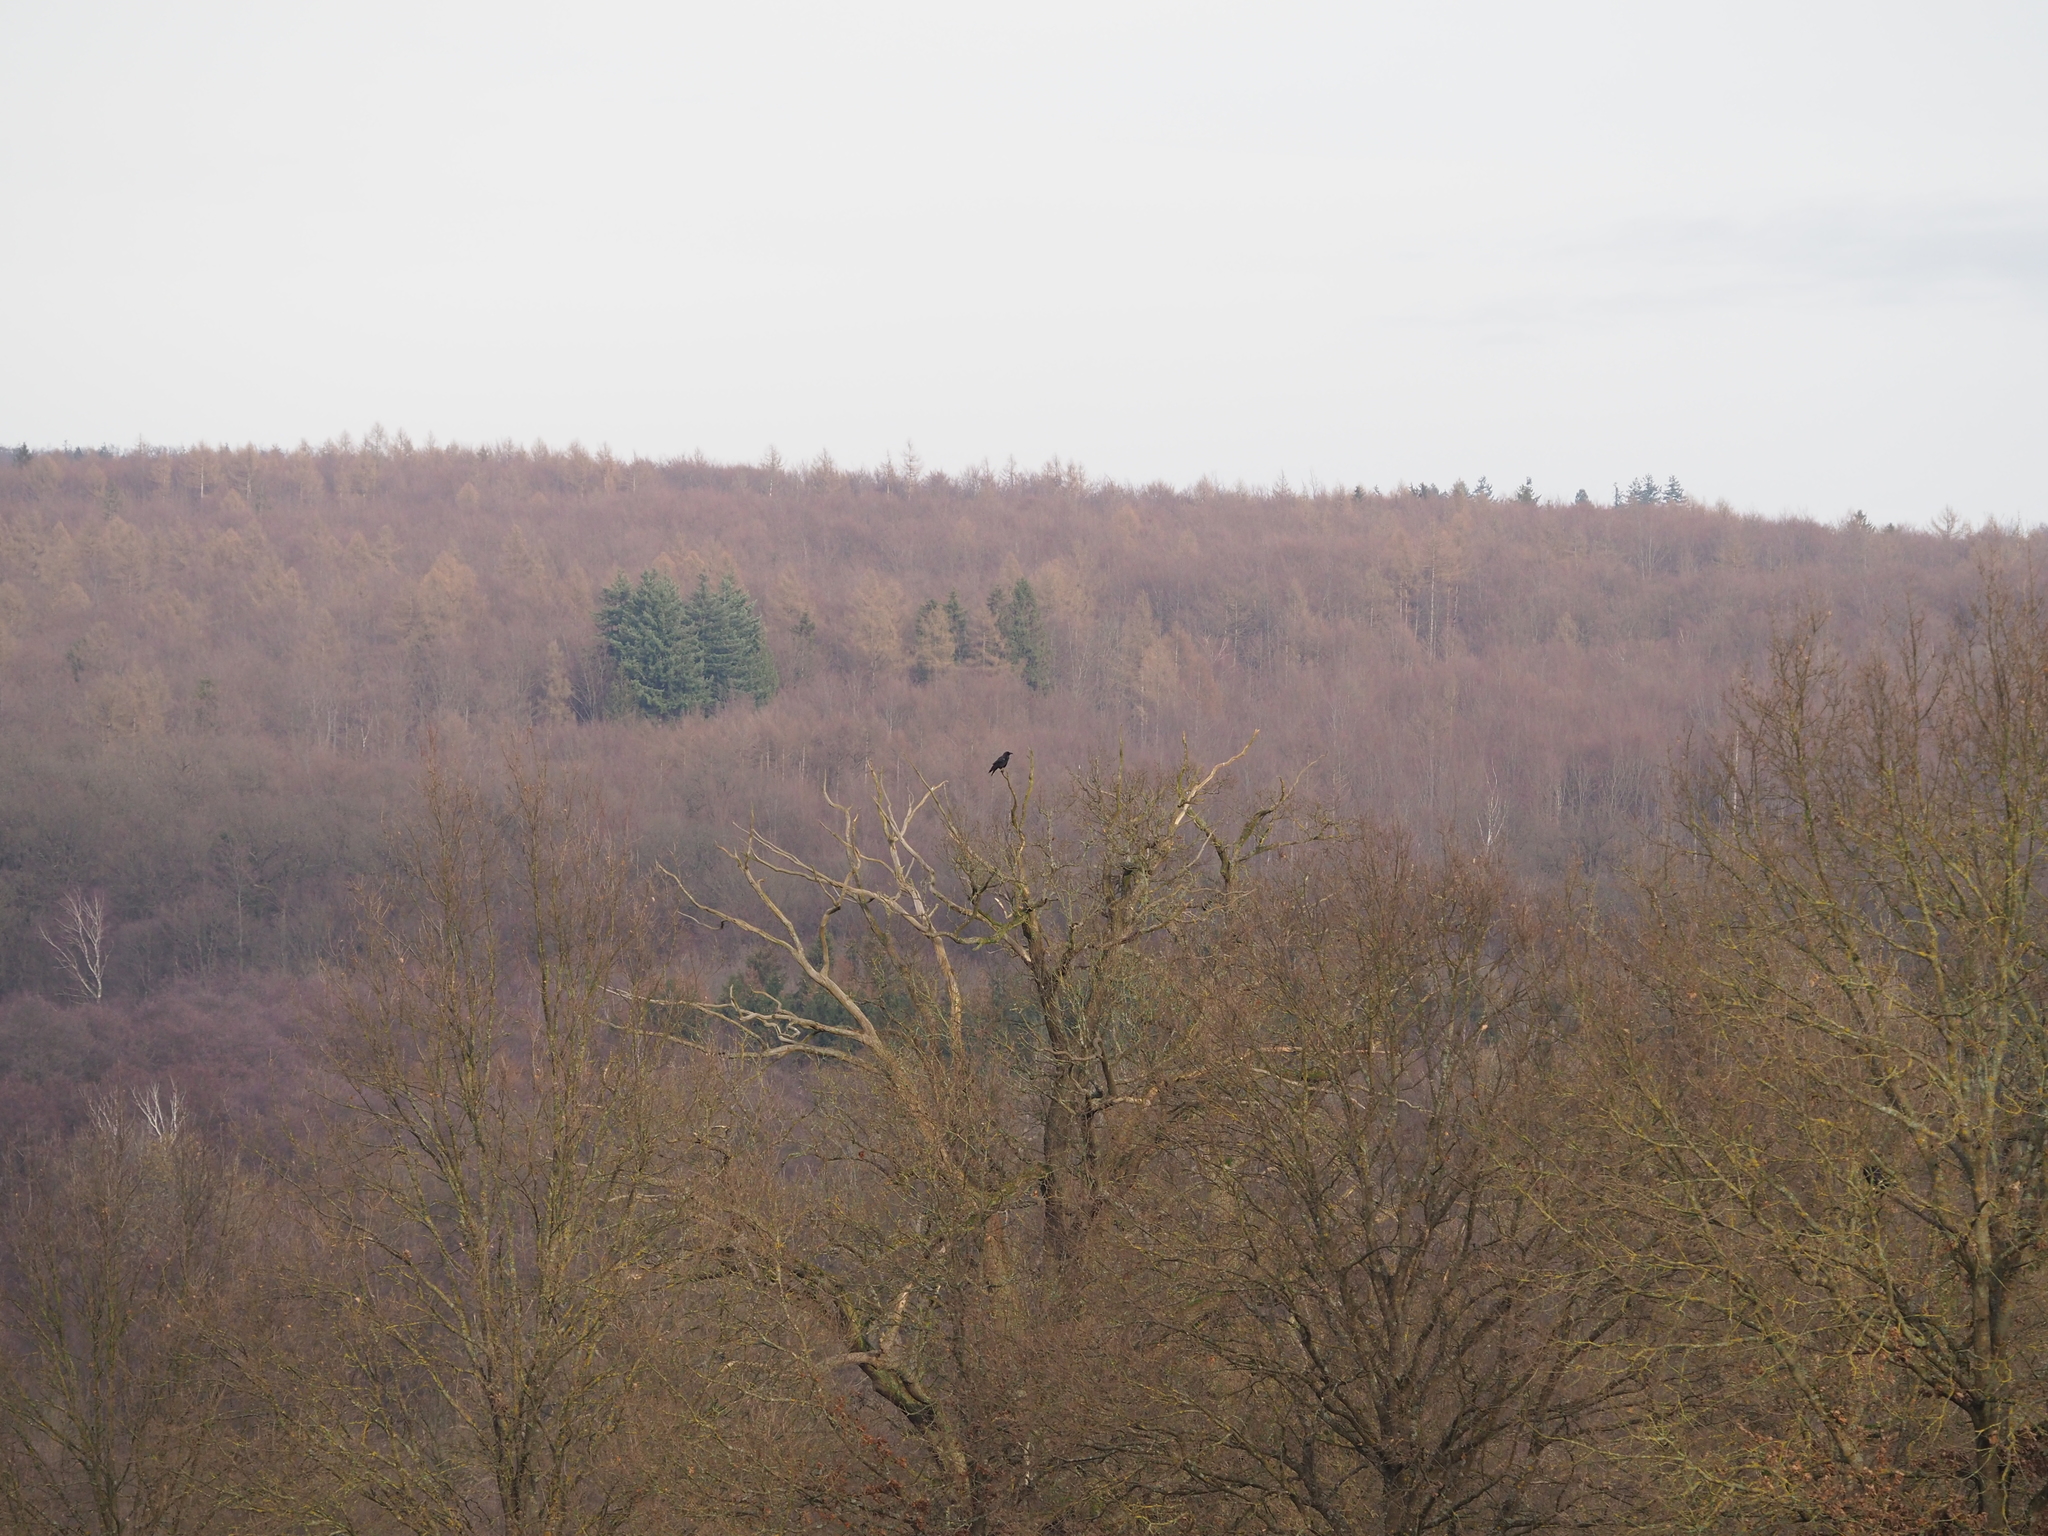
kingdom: Animalia
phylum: Chordata
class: Aves
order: Passeriformes
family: Corvidae
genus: Corvus
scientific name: Corvus corax
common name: Common raven
